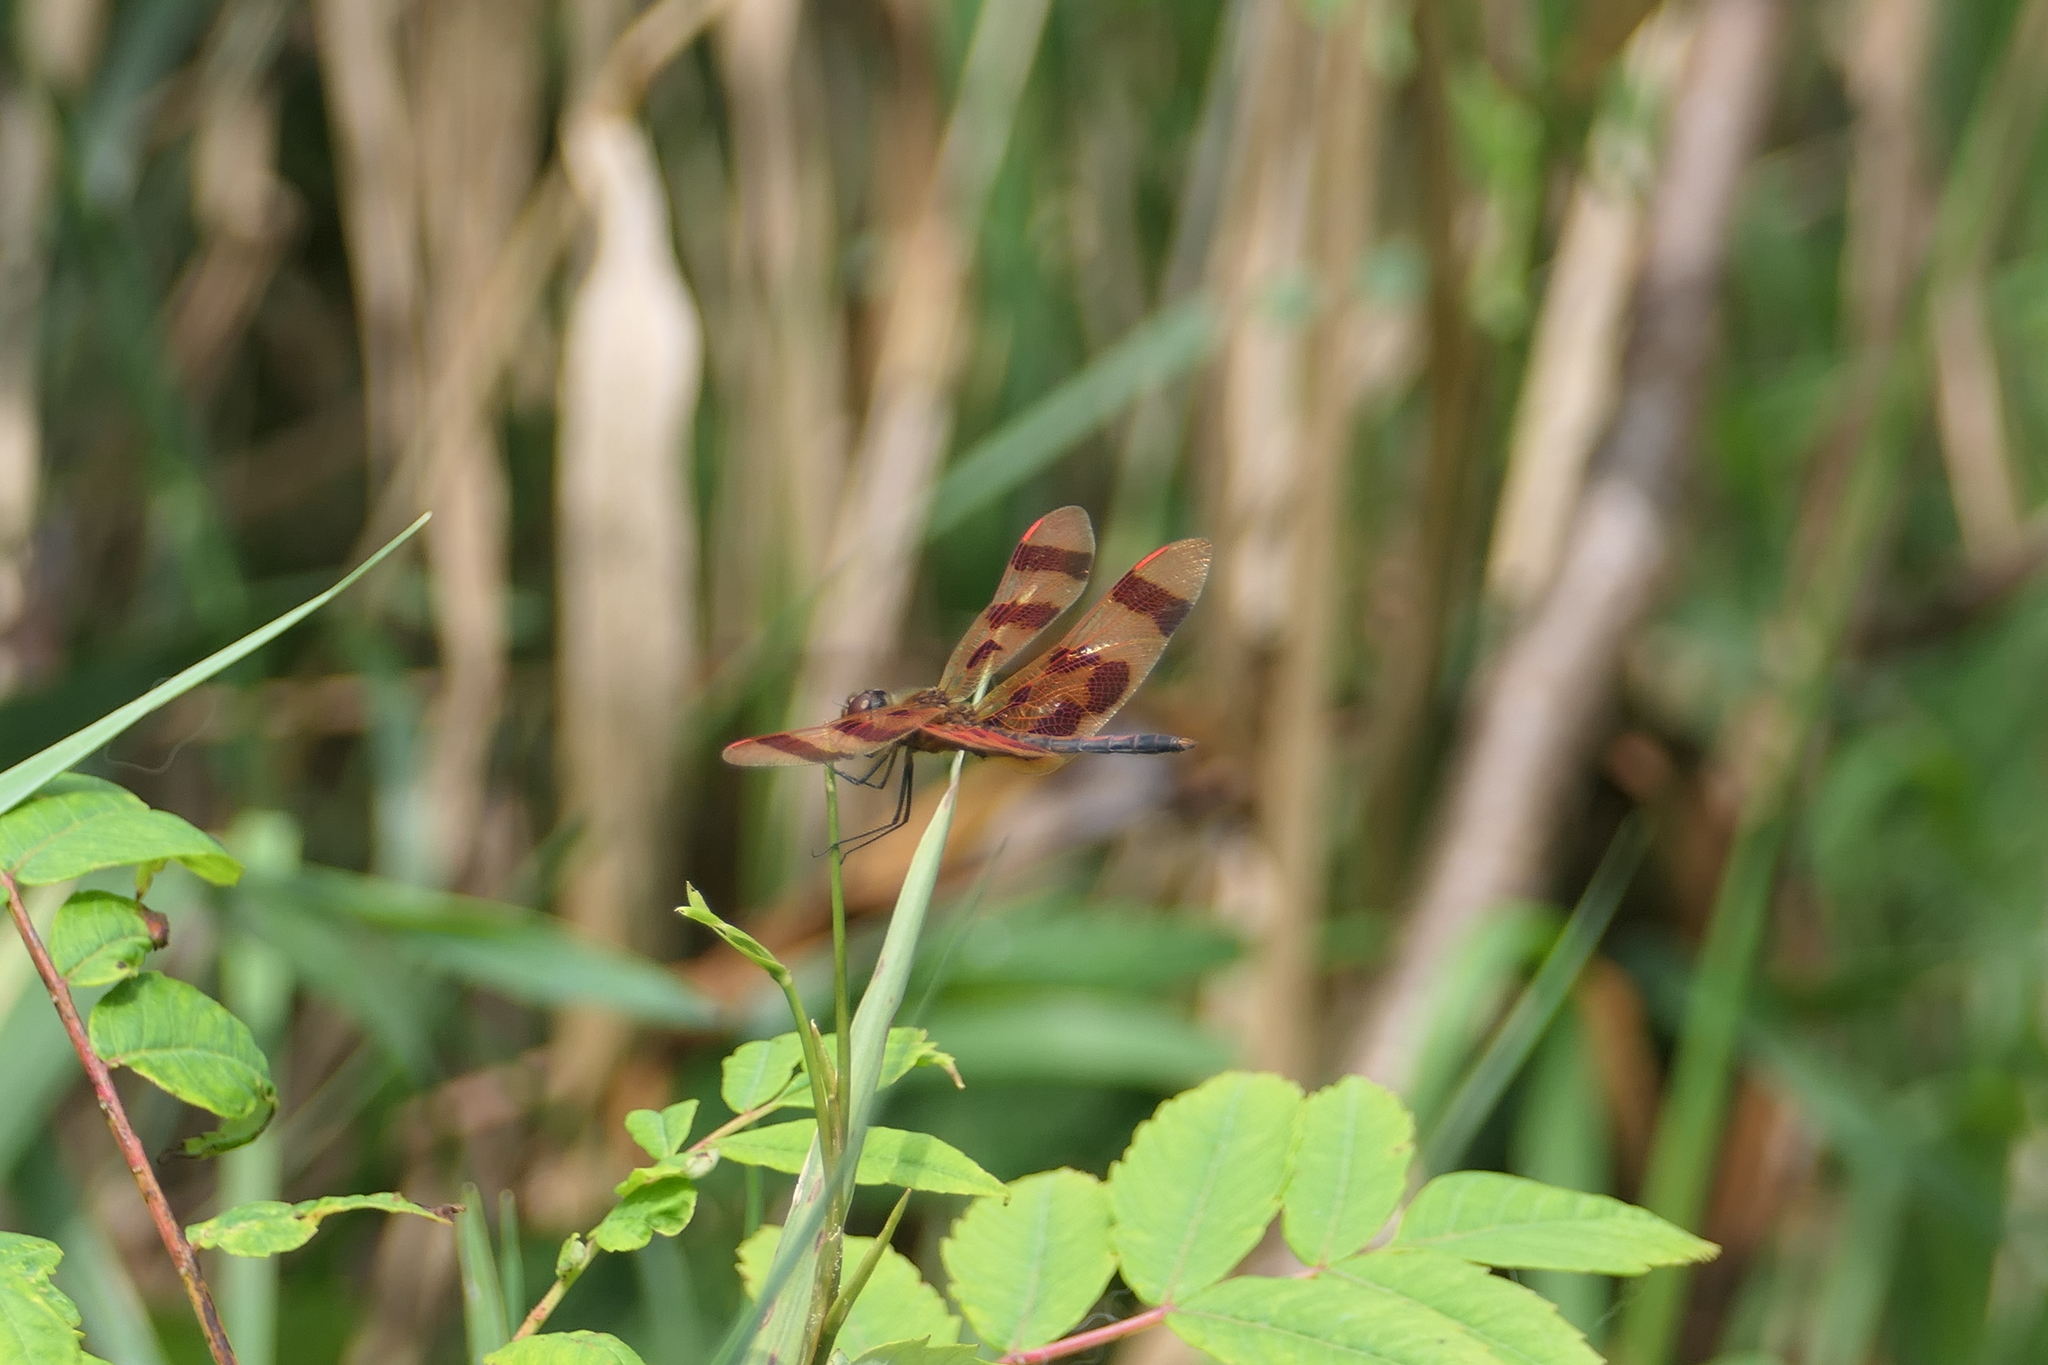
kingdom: Animalia
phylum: Arthropoda
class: Insecta
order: Odonata
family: Libellulidae
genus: Celithemis
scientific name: Celithemis eponina
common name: Halloween pennant
